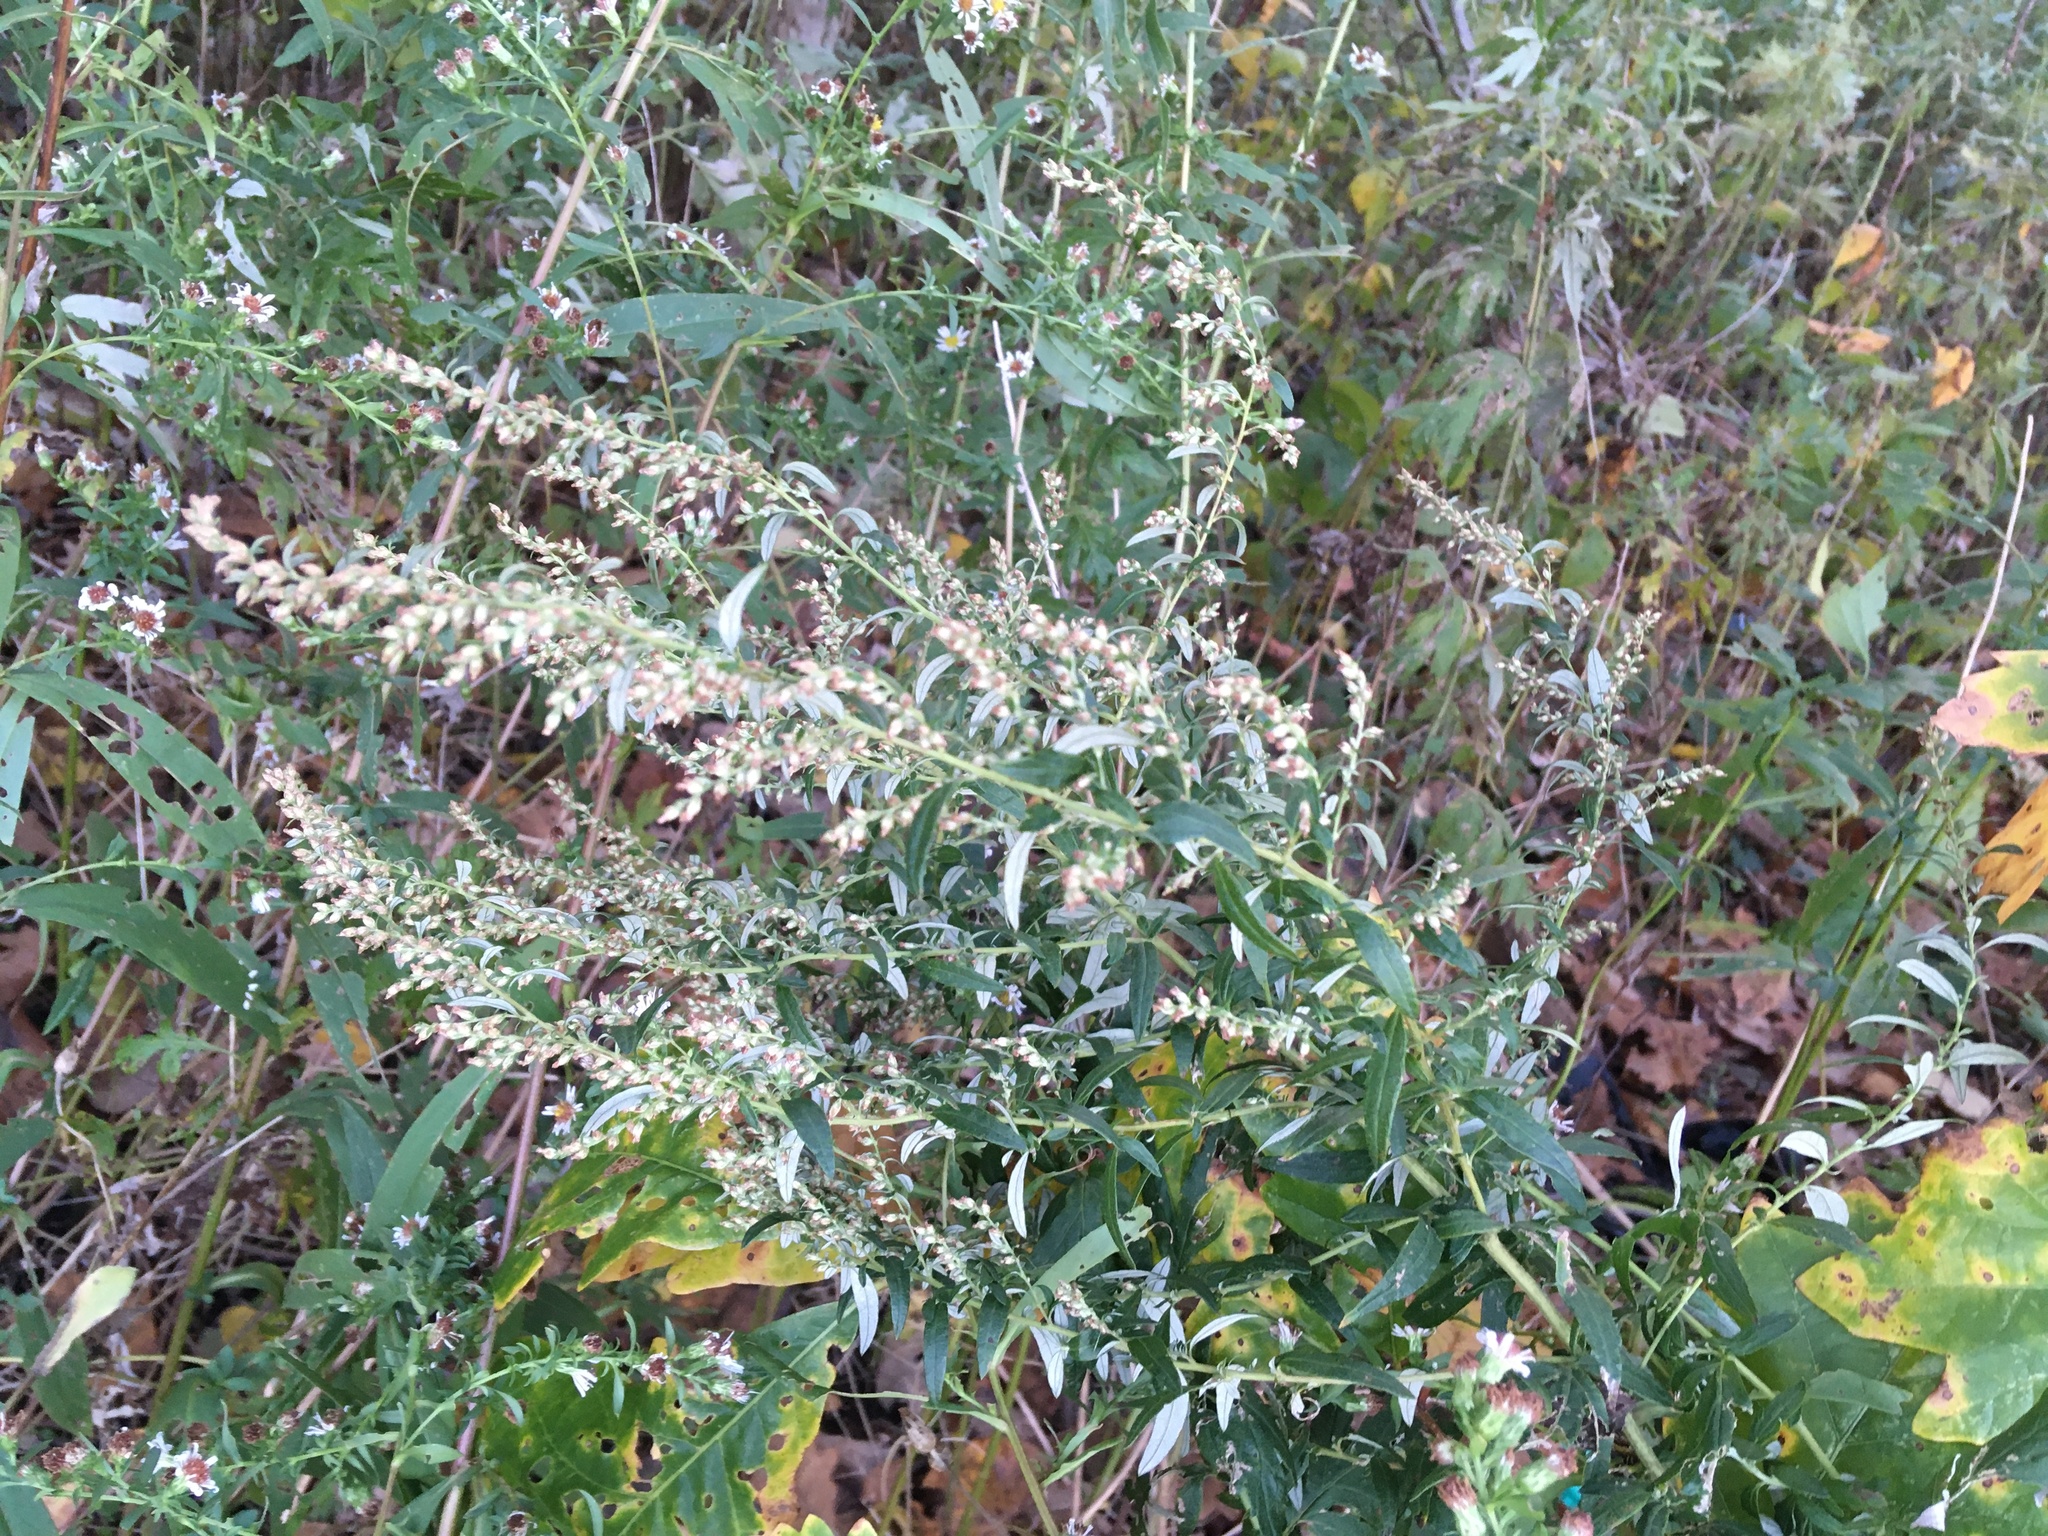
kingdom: Plantae
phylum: Tracheophyta
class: Magnoliopsida
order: Asterales
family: Asteraceae
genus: Artemisia
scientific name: Artemisia vulgaris
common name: Mugwort
